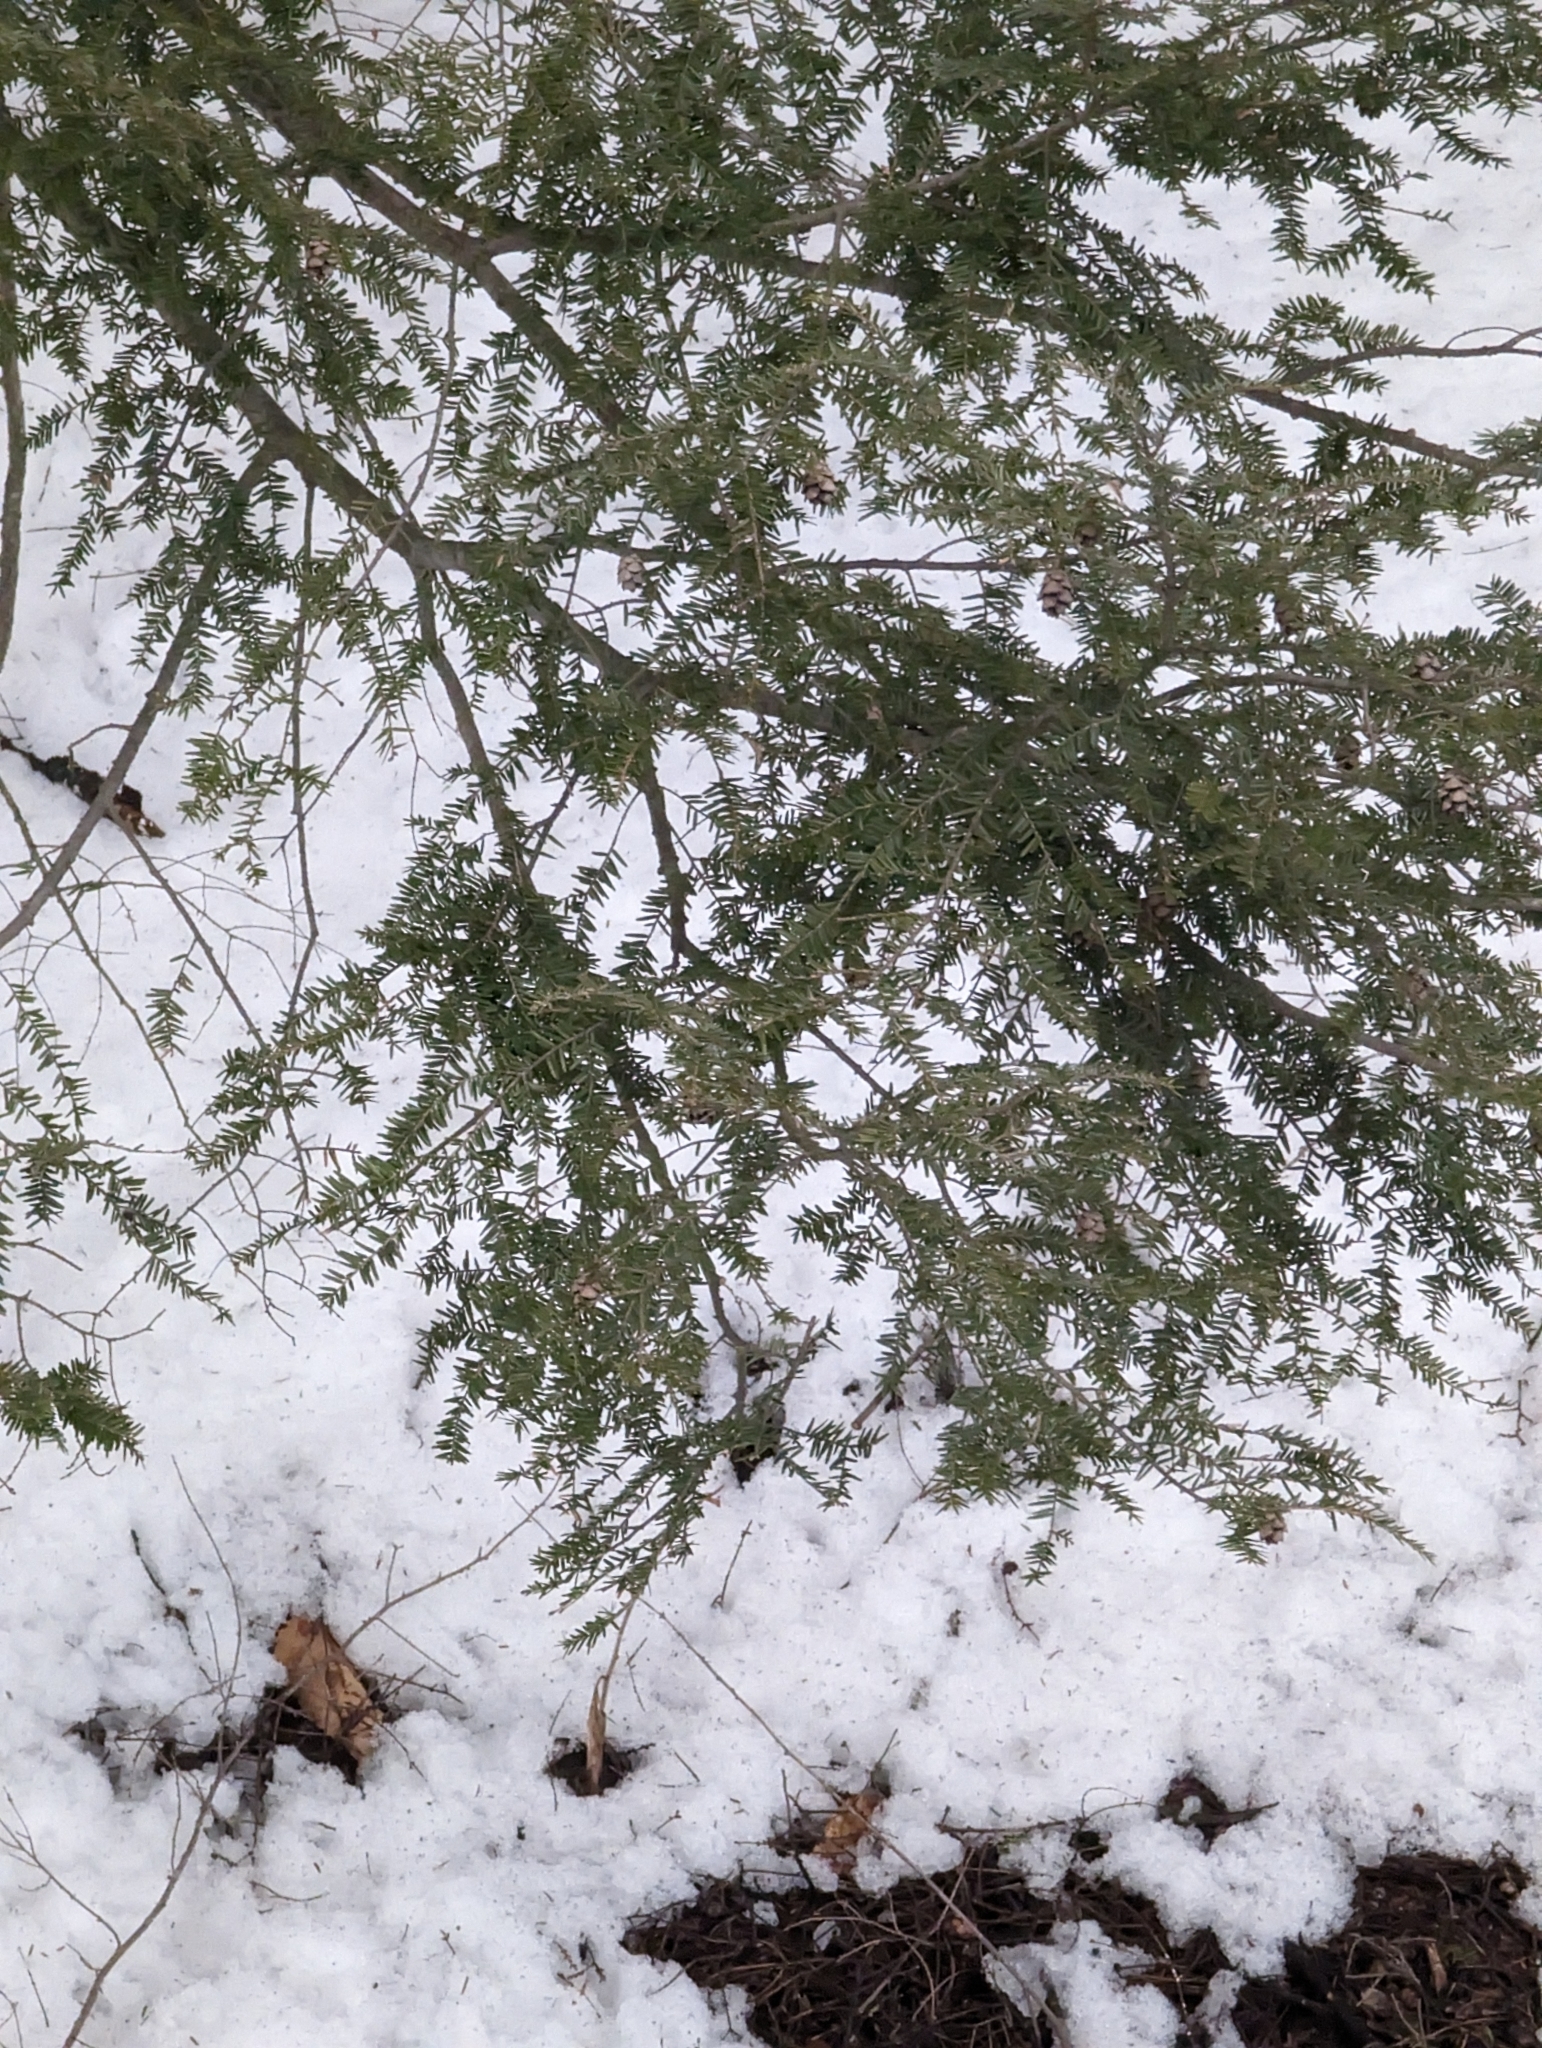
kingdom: Plantae
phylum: Tracheophyta
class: Pinopsida
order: Pinales
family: Pinaceae
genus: Tsuga
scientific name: Tsuga canadensis
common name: Eastern hemlock
